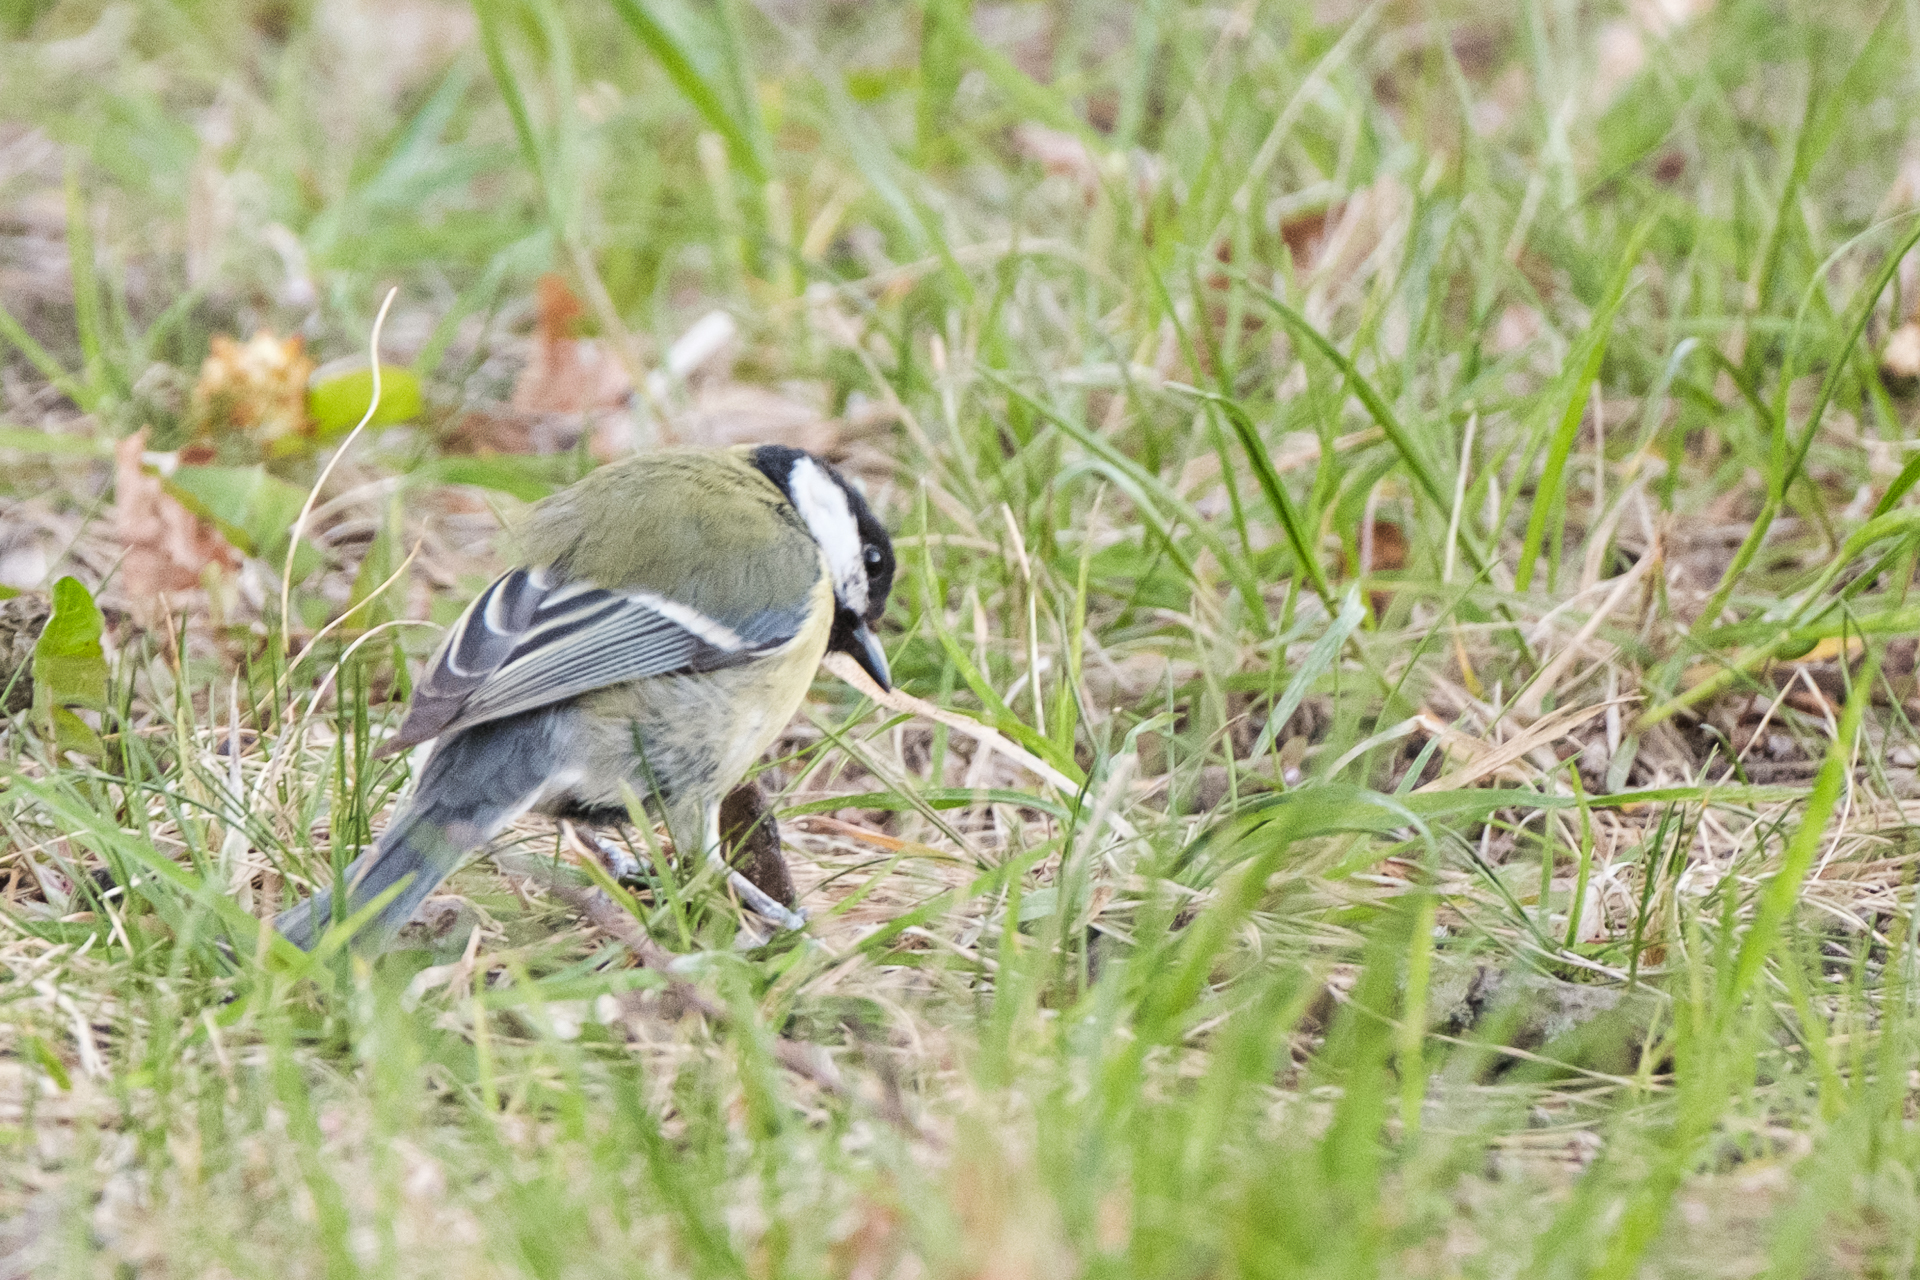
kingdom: Animalia
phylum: Chordata
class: Aves
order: Passeriformes
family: Paridae
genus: Parus
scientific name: Parus major
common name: Great tit
